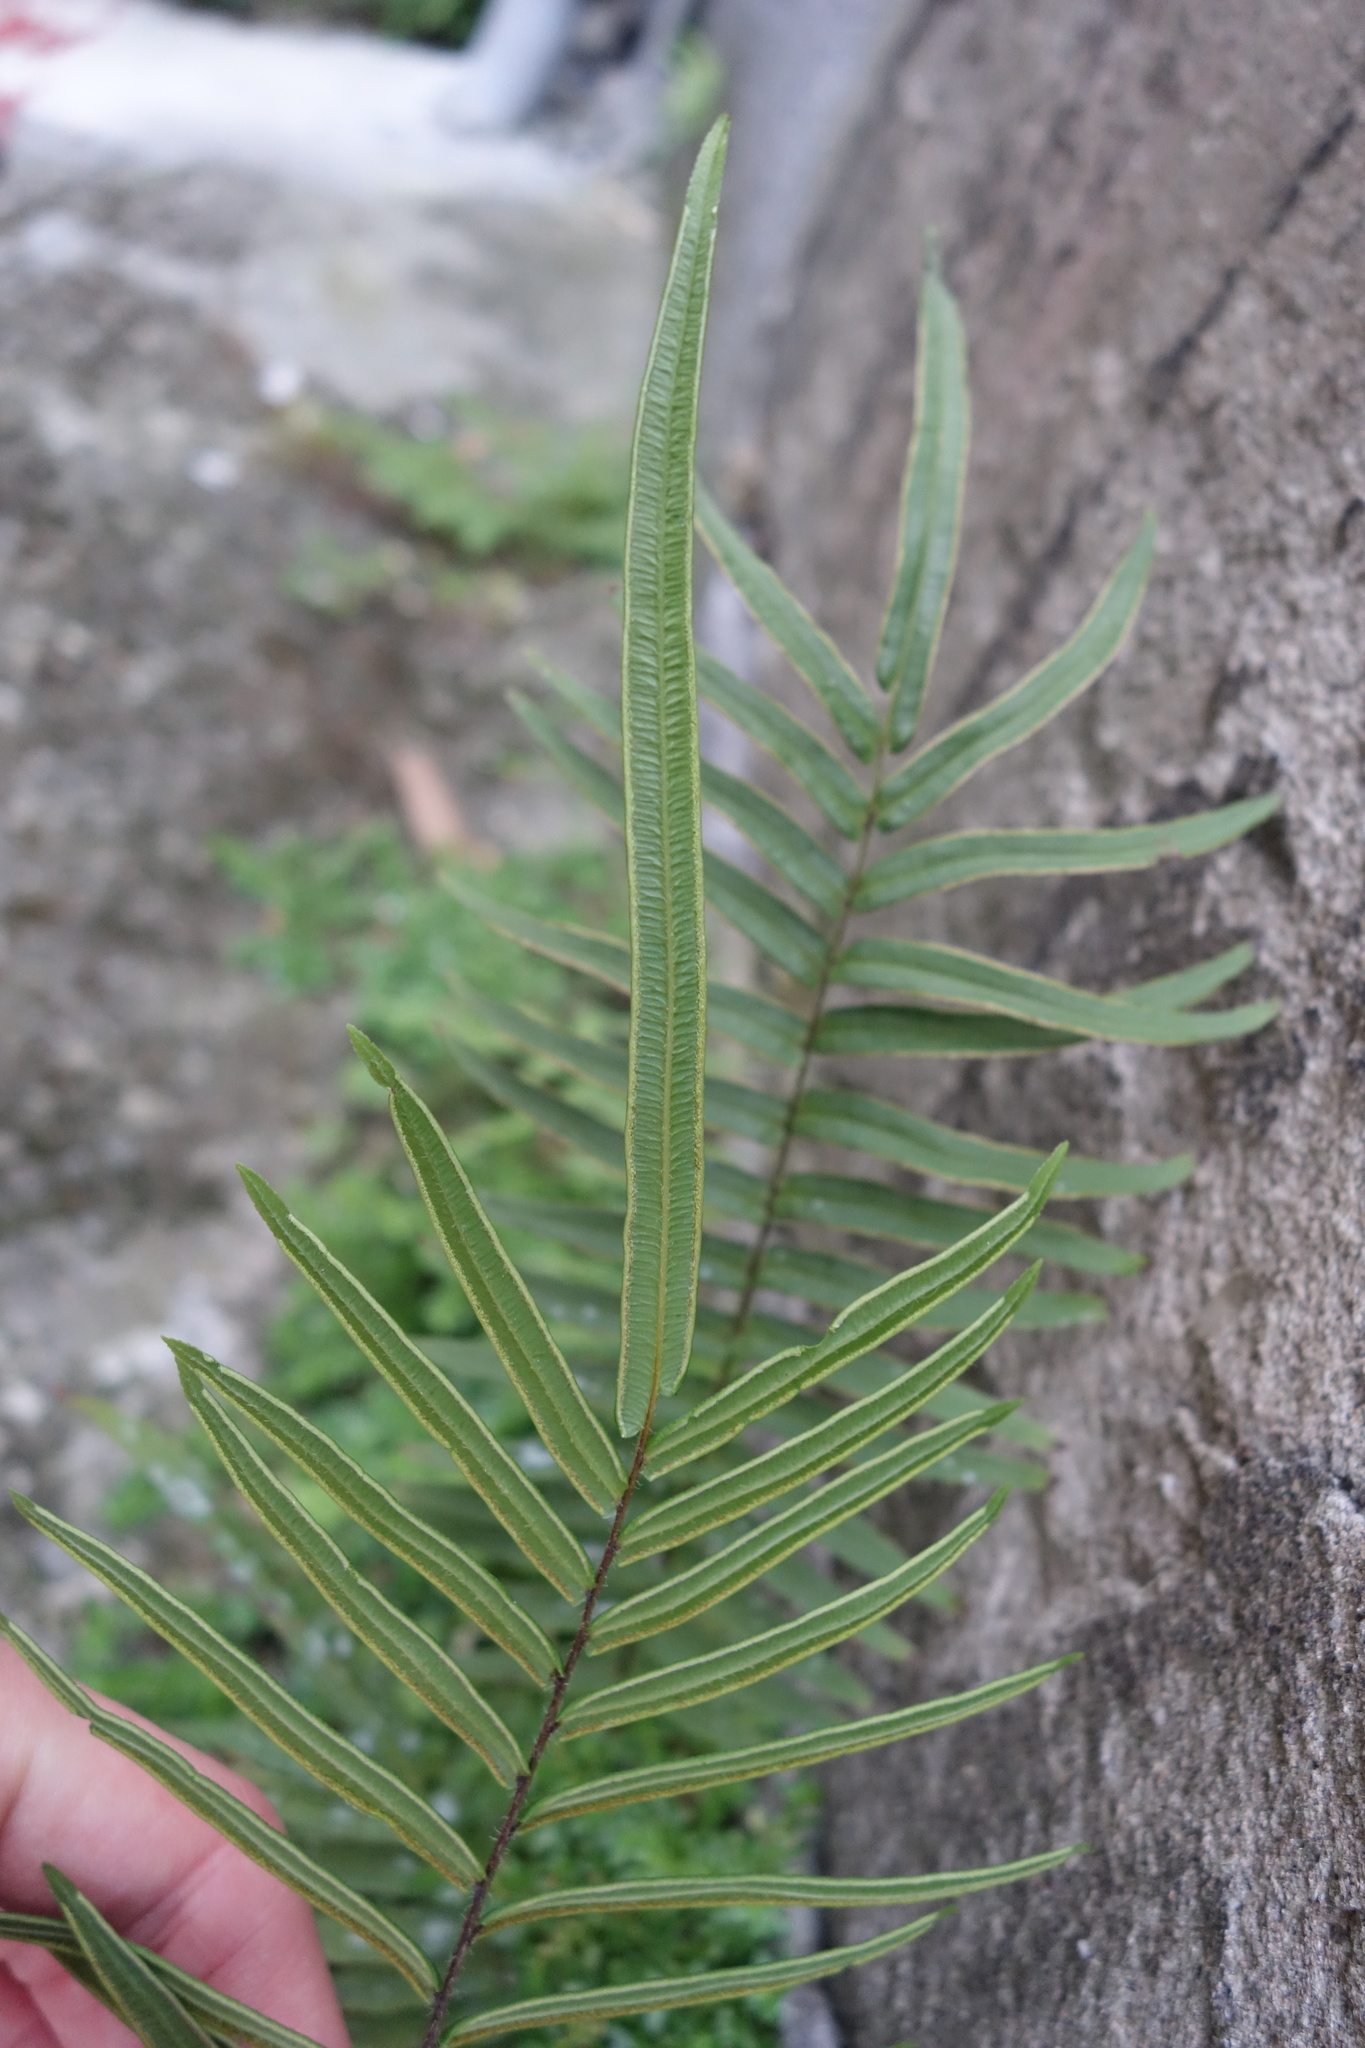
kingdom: Plantae
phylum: Tracheophyta
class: Polypodiopsida
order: Polypodiales
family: Pteridaceae
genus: Pteris
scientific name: Pteris vittata
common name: Ladder brake
